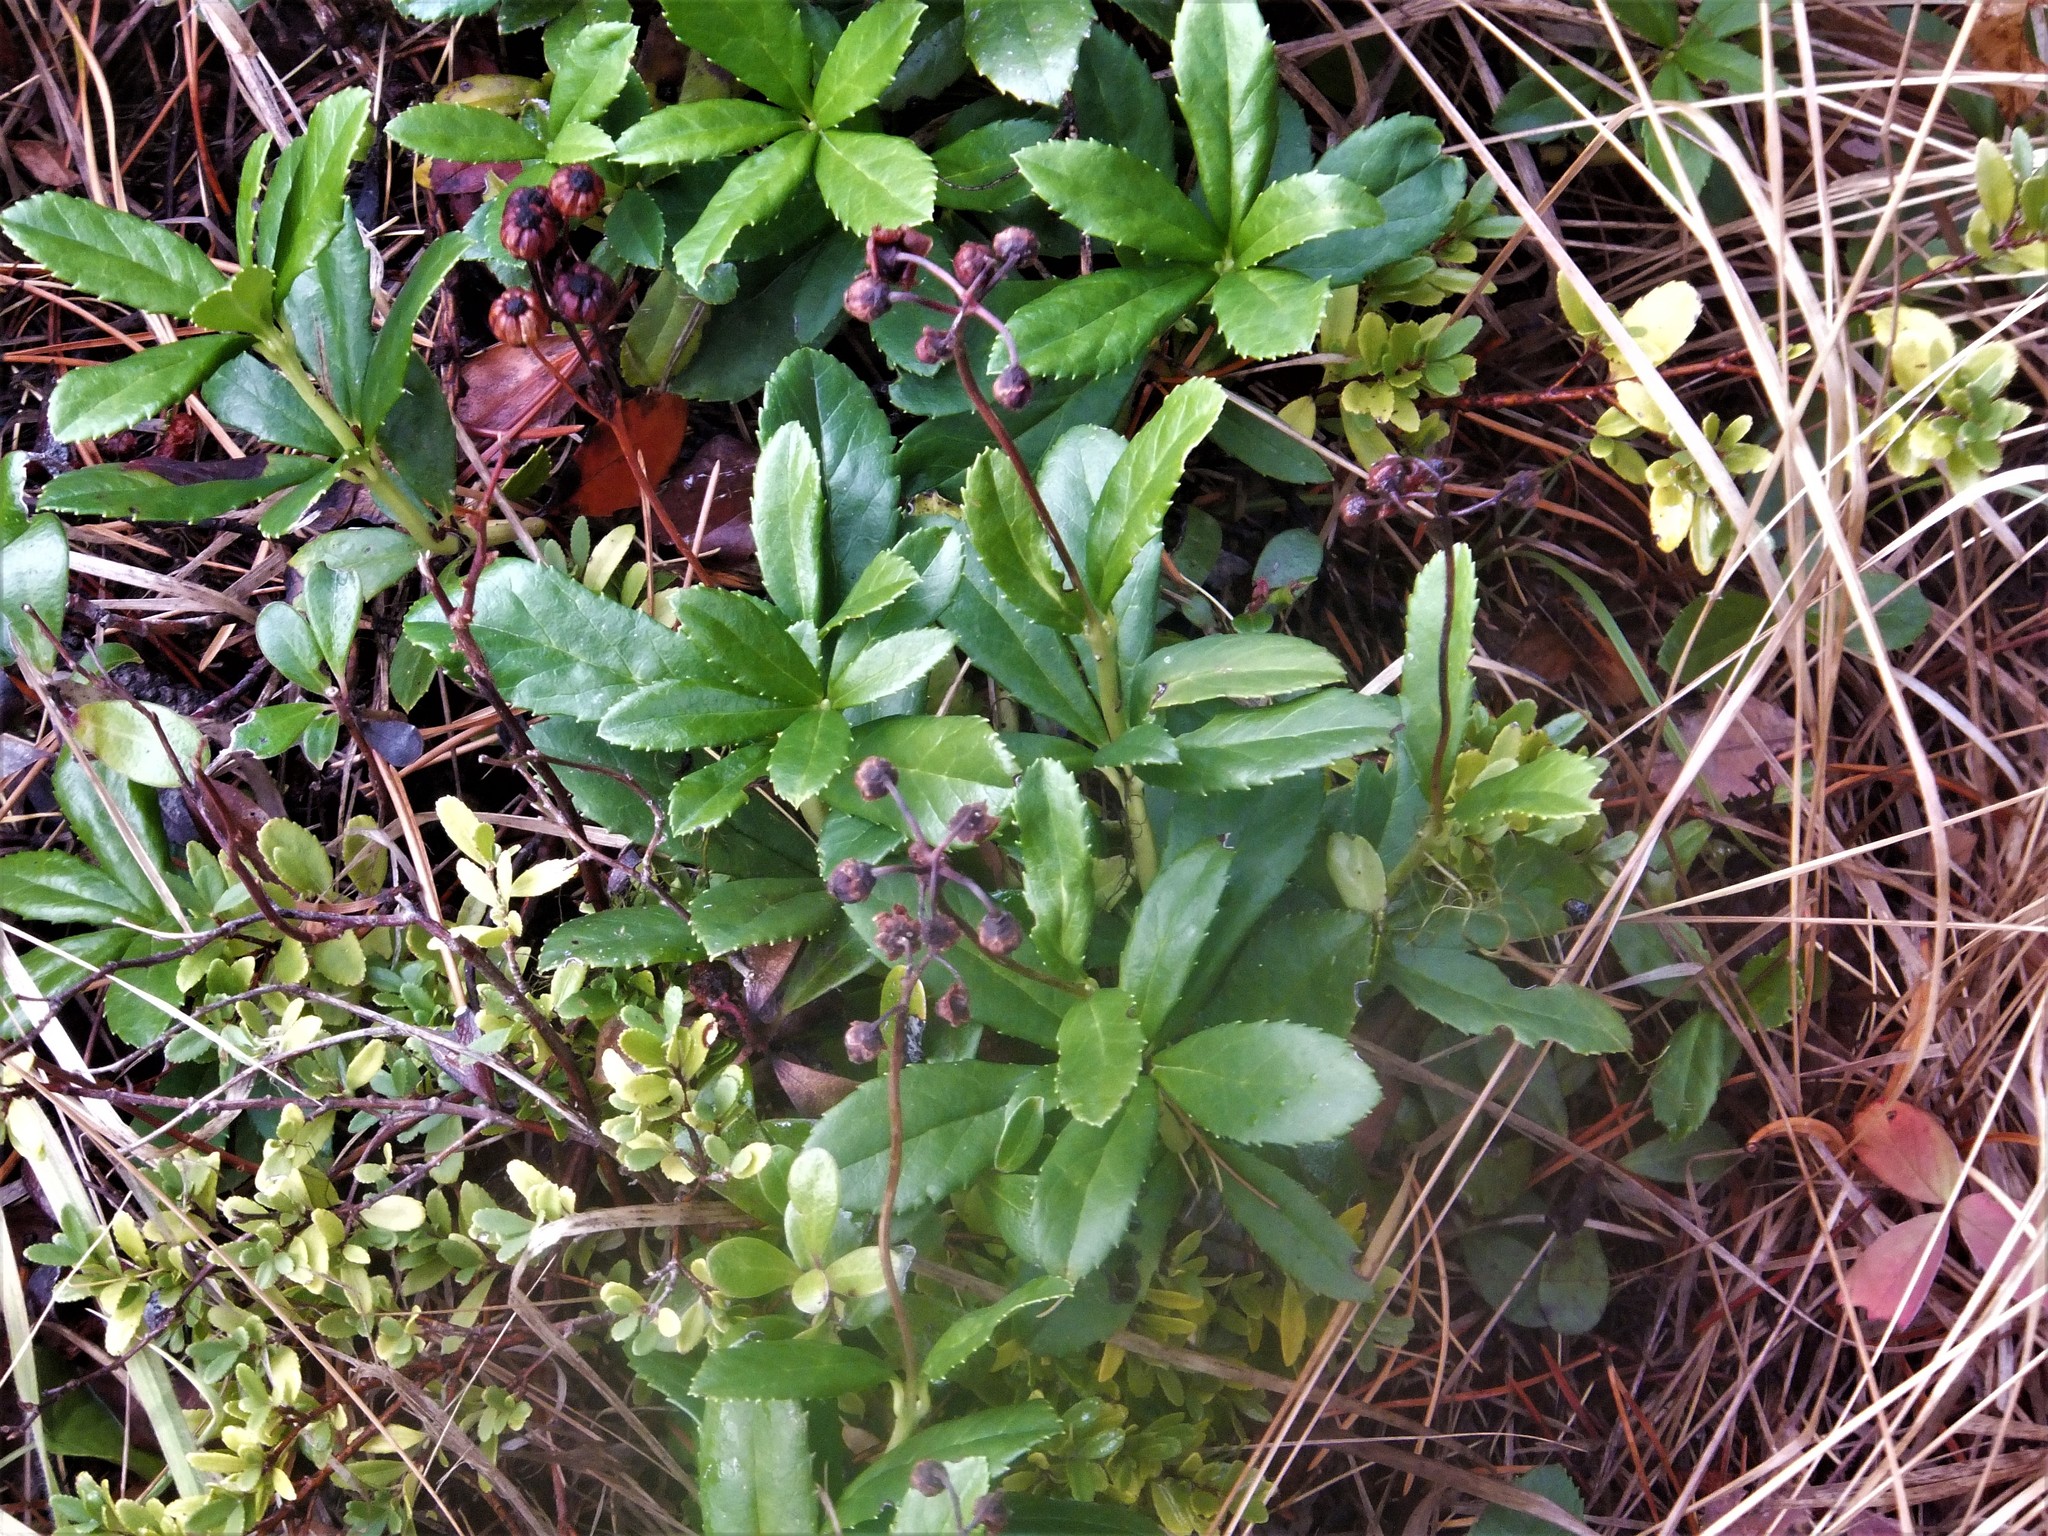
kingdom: Plantae
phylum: Tracheophyta
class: Magnoliopsida
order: Ericales
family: Ericaceae
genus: Chimaphila
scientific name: Chimaphila umbellata
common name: Pipsissewa
